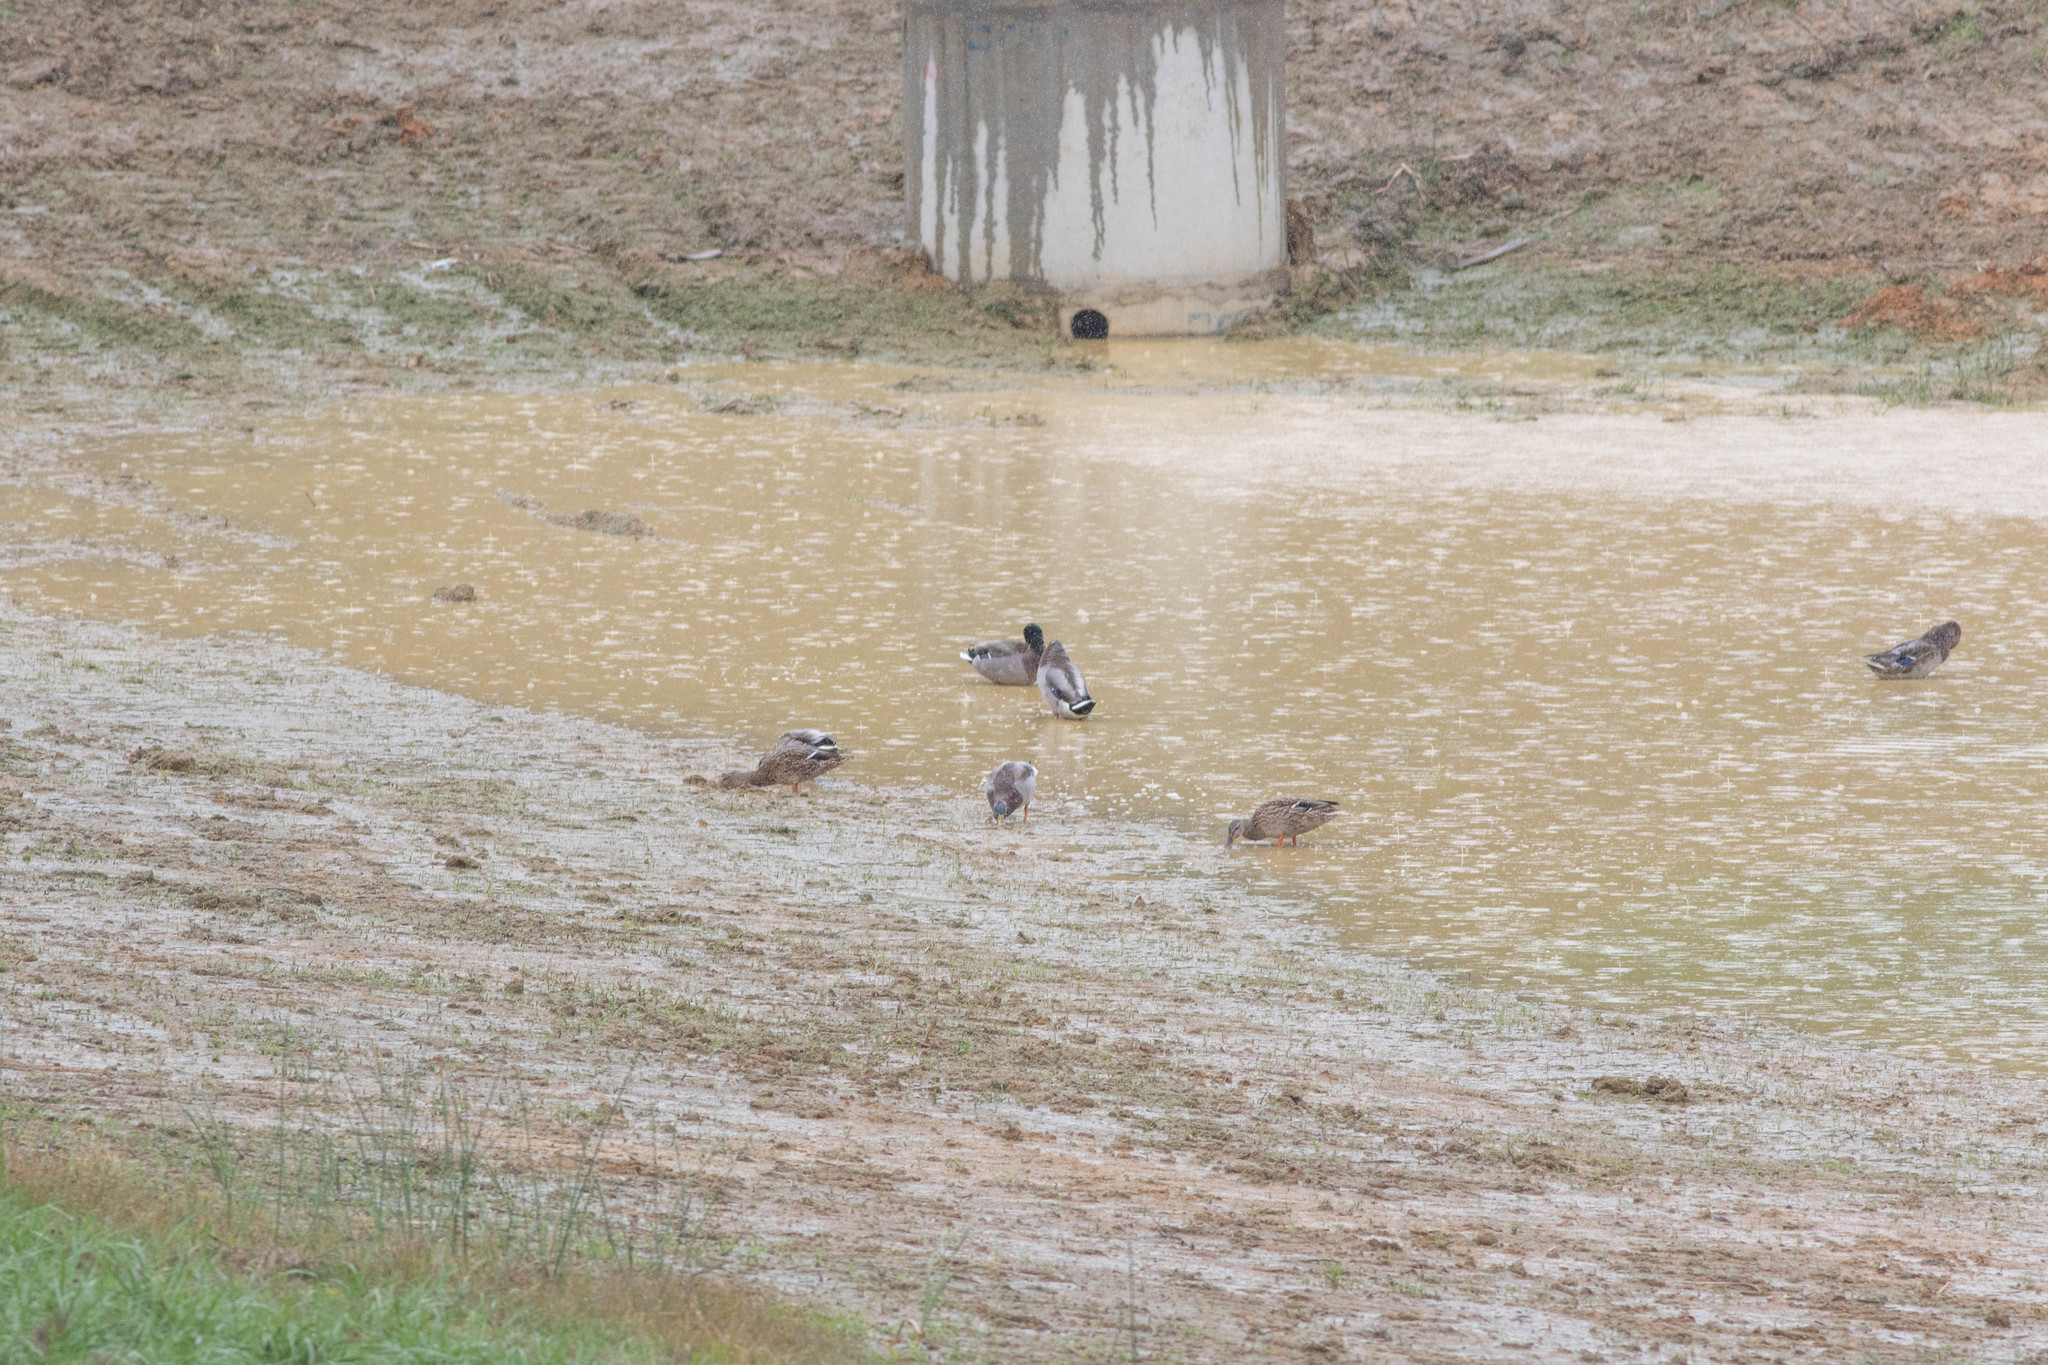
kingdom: Animalia
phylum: Chordata
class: Aves
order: Anseriformes
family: Anatidae
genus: Anas
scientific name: Anas platyrhynchos
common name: Mallard
